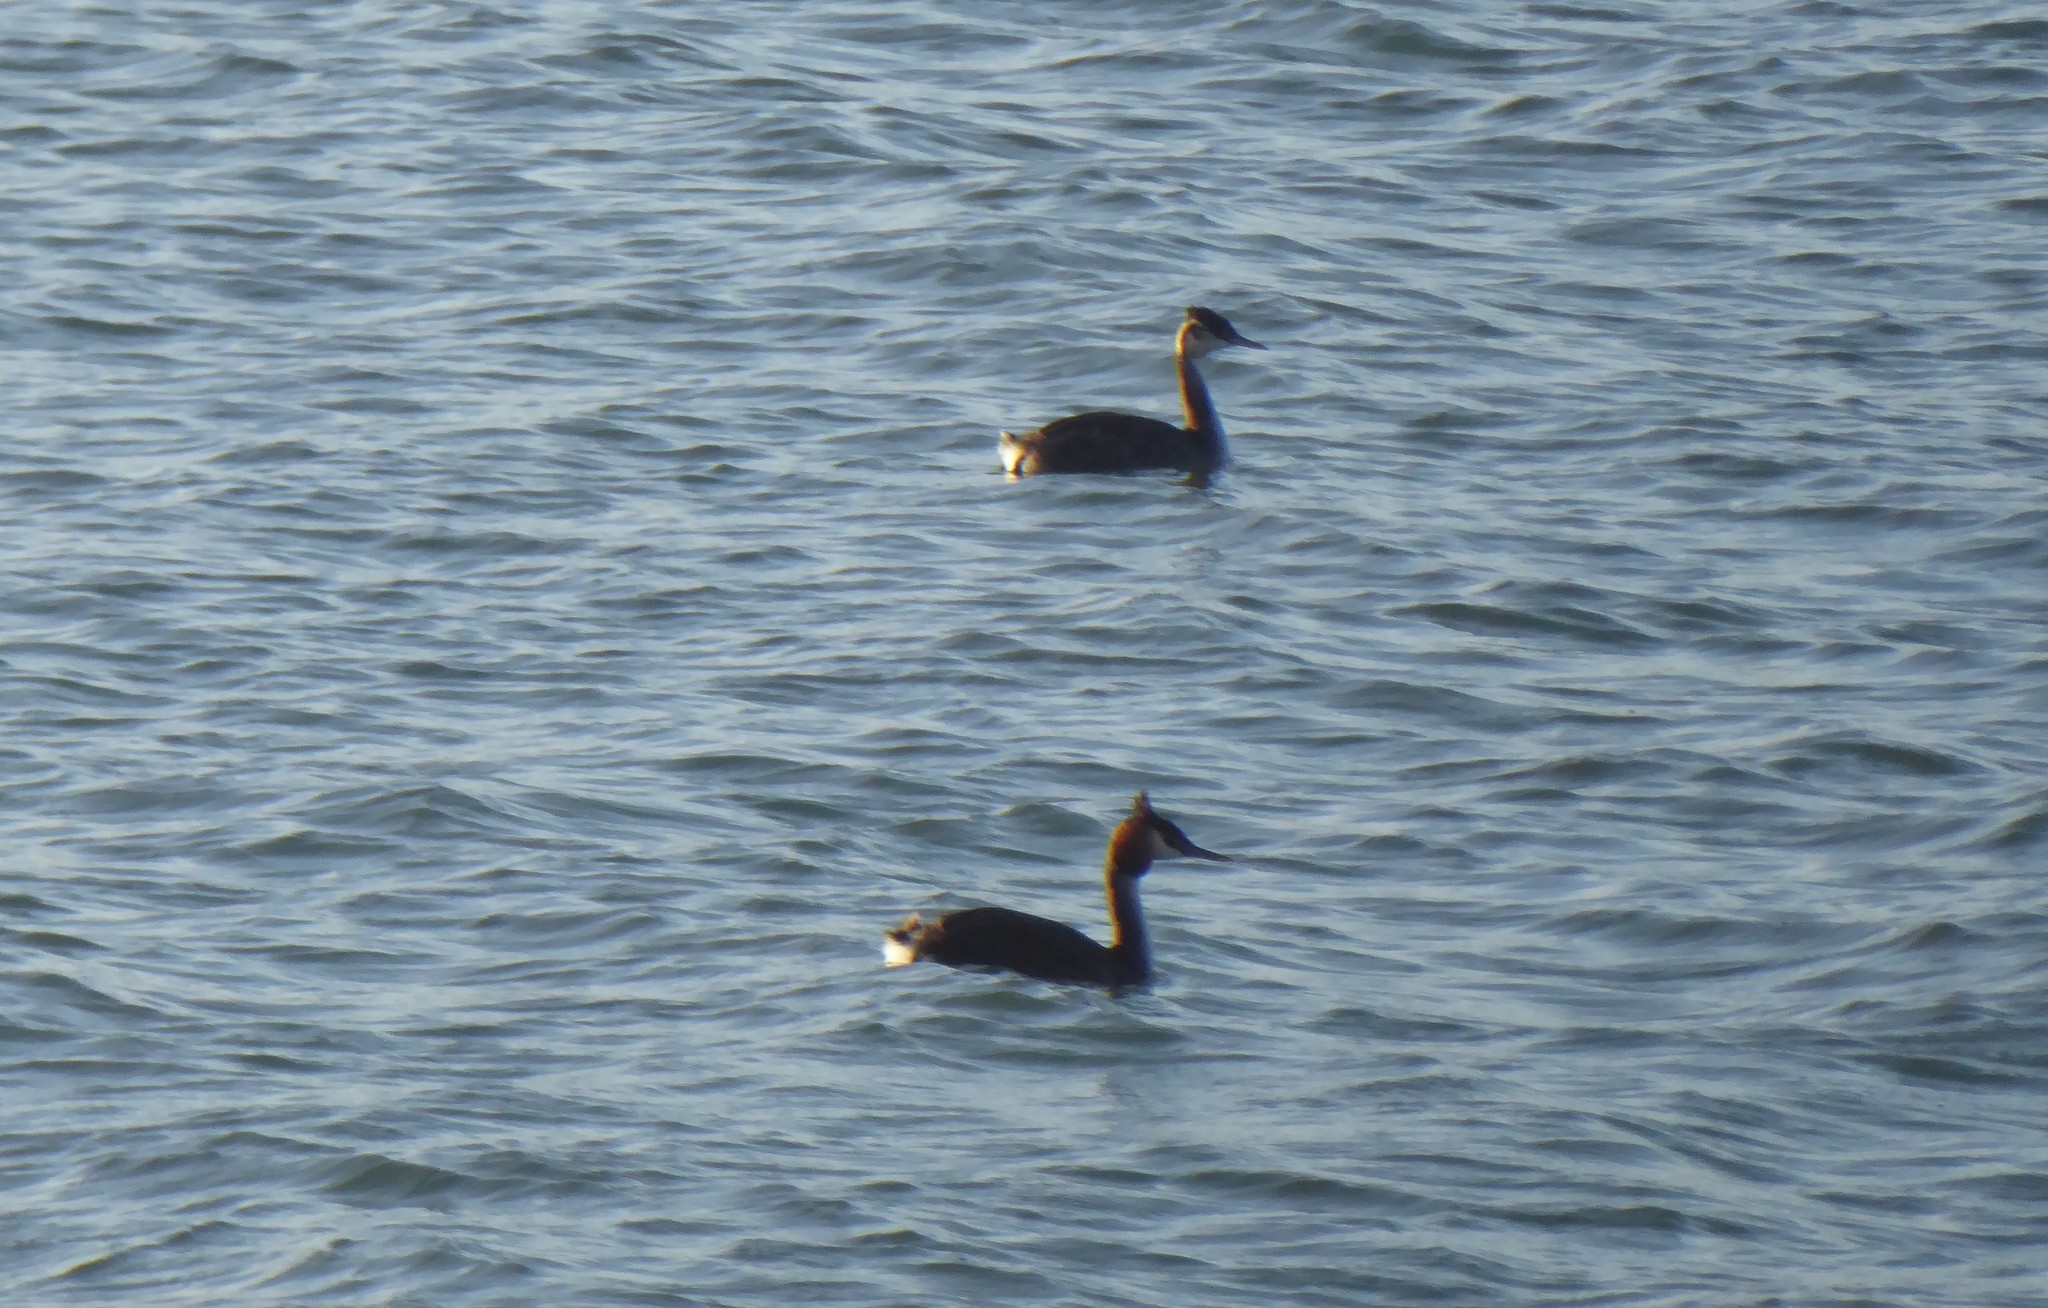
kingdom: Animalia
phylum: Chordata
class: Aves
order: Podicipediformes
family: Podicipedidae
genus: Podiceps
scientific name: Podiceps cristatus
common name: Great crested grebe
